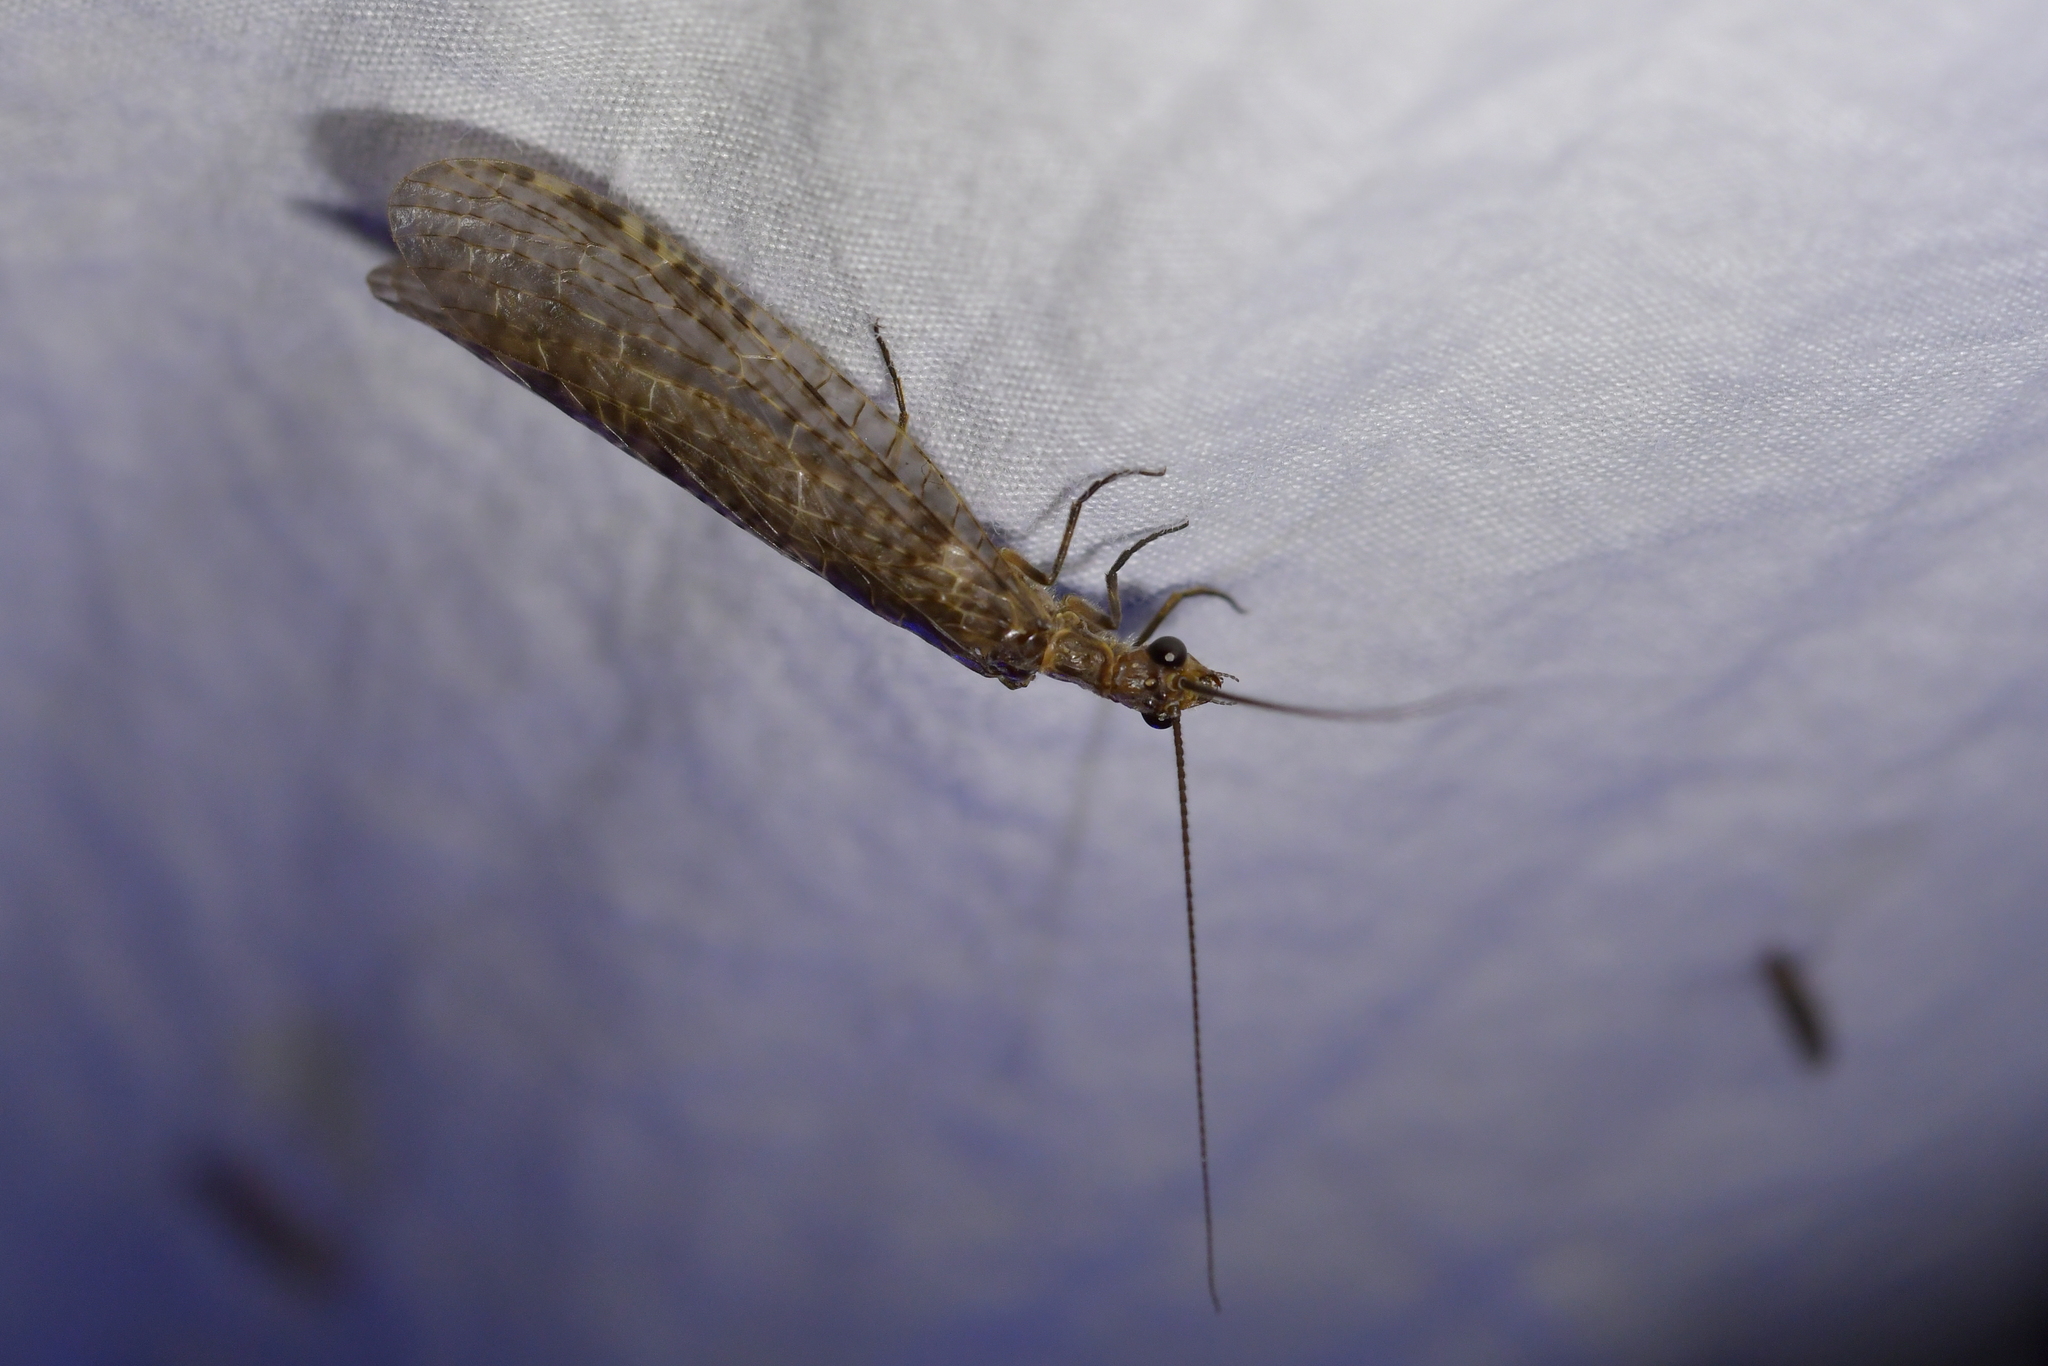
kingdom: Animalia
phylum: Arthropoda
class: Insecta
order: Megaloptera
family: Corydalidae
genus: Archichauliodes
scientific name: Archichauliodes diversus
